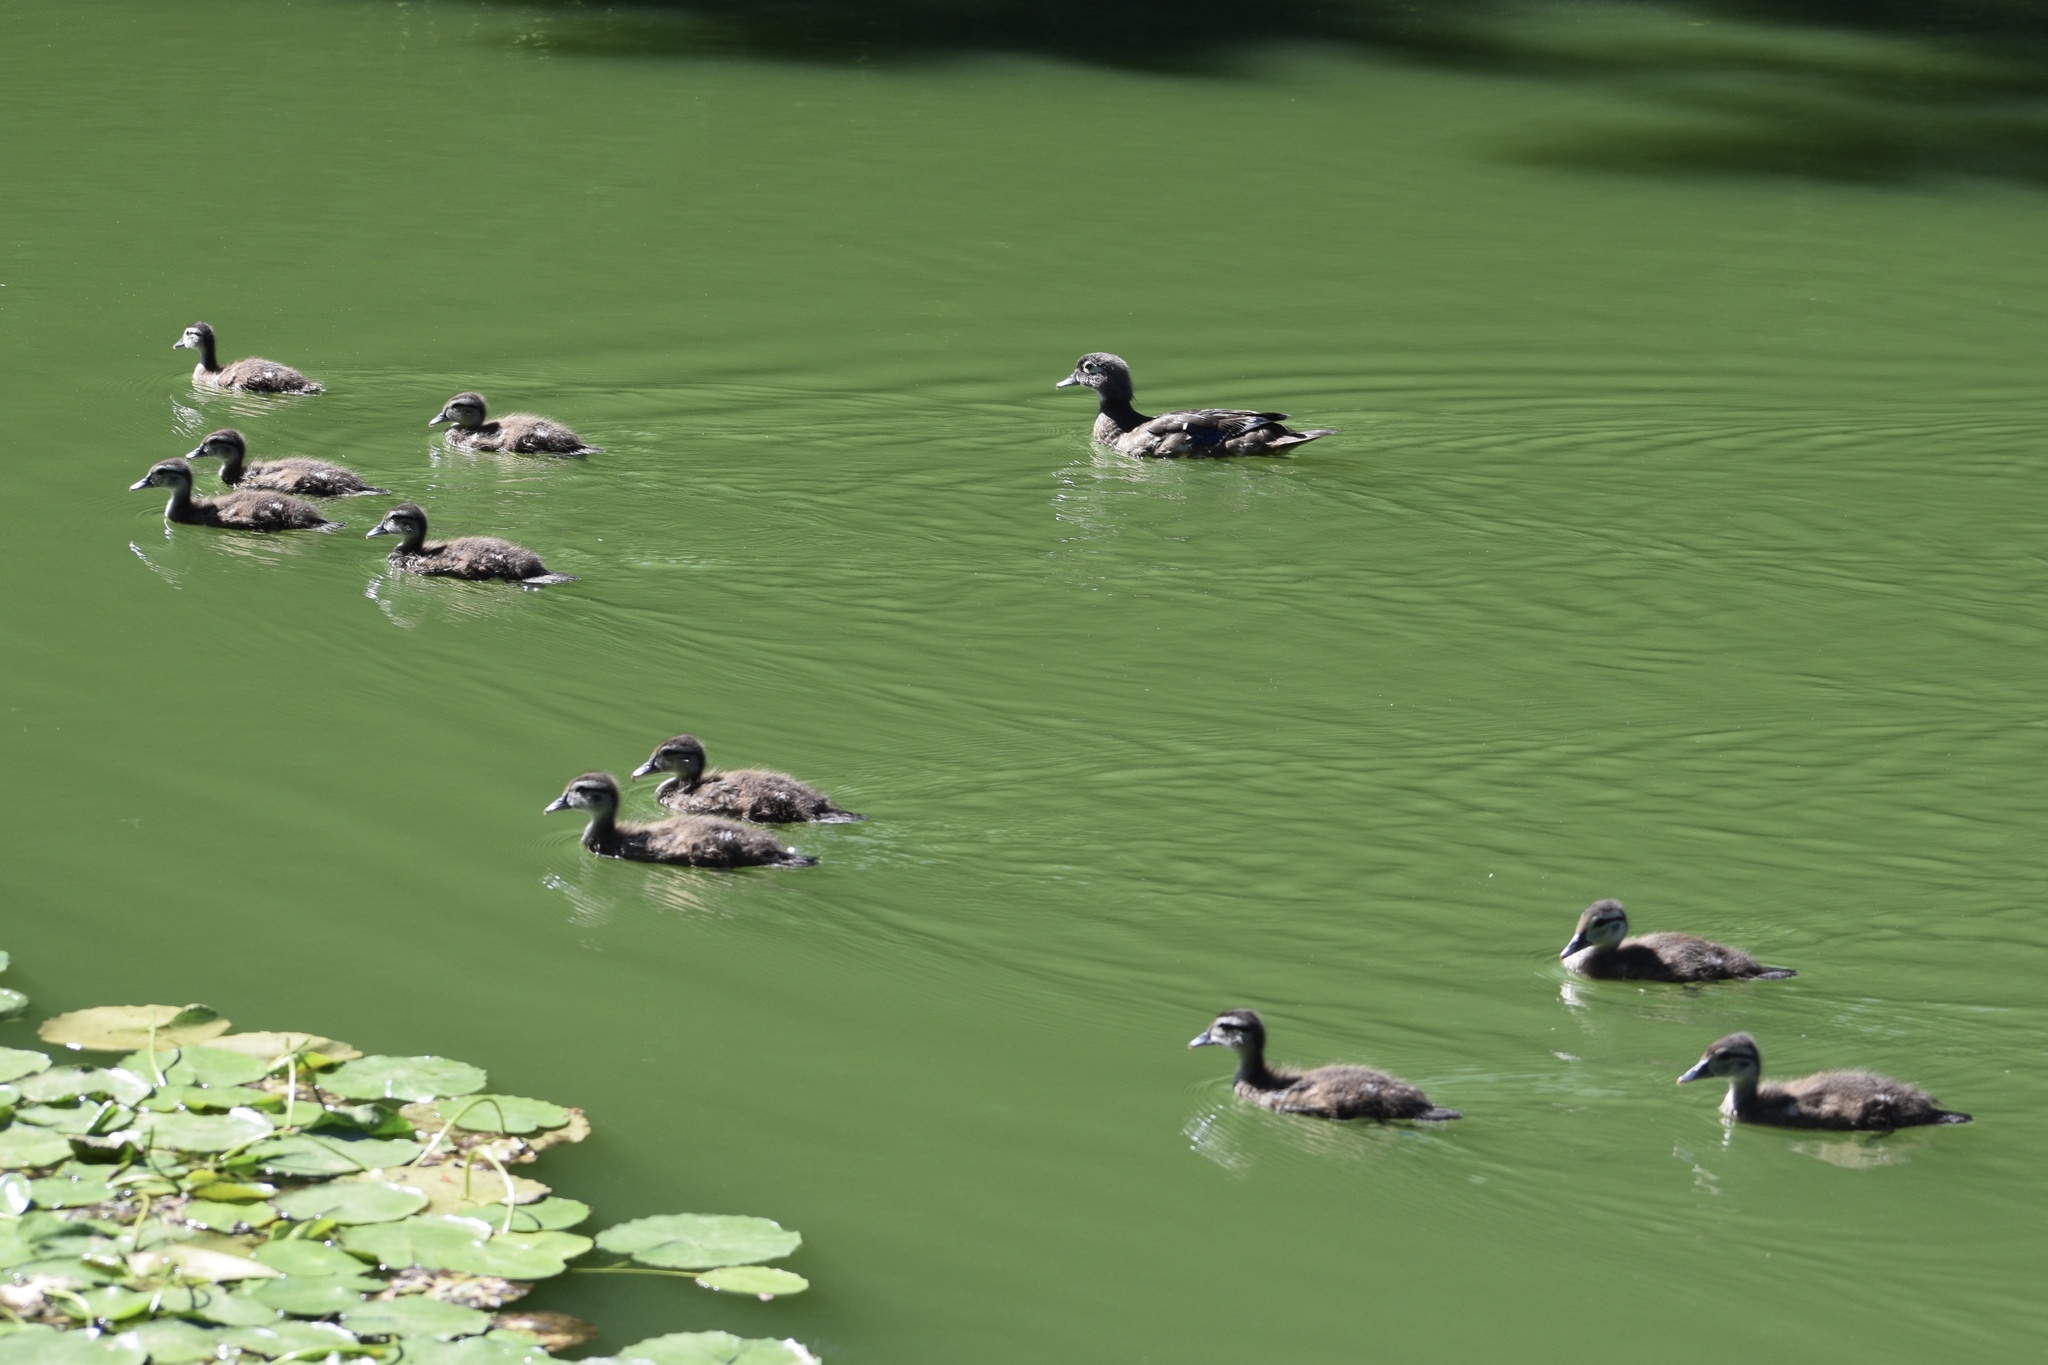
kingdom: Animalia
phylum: Chordata
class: Aves
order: Anseriformes
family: Anatidae
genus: Aix
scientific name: Aix sponsa
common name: Wood duck
